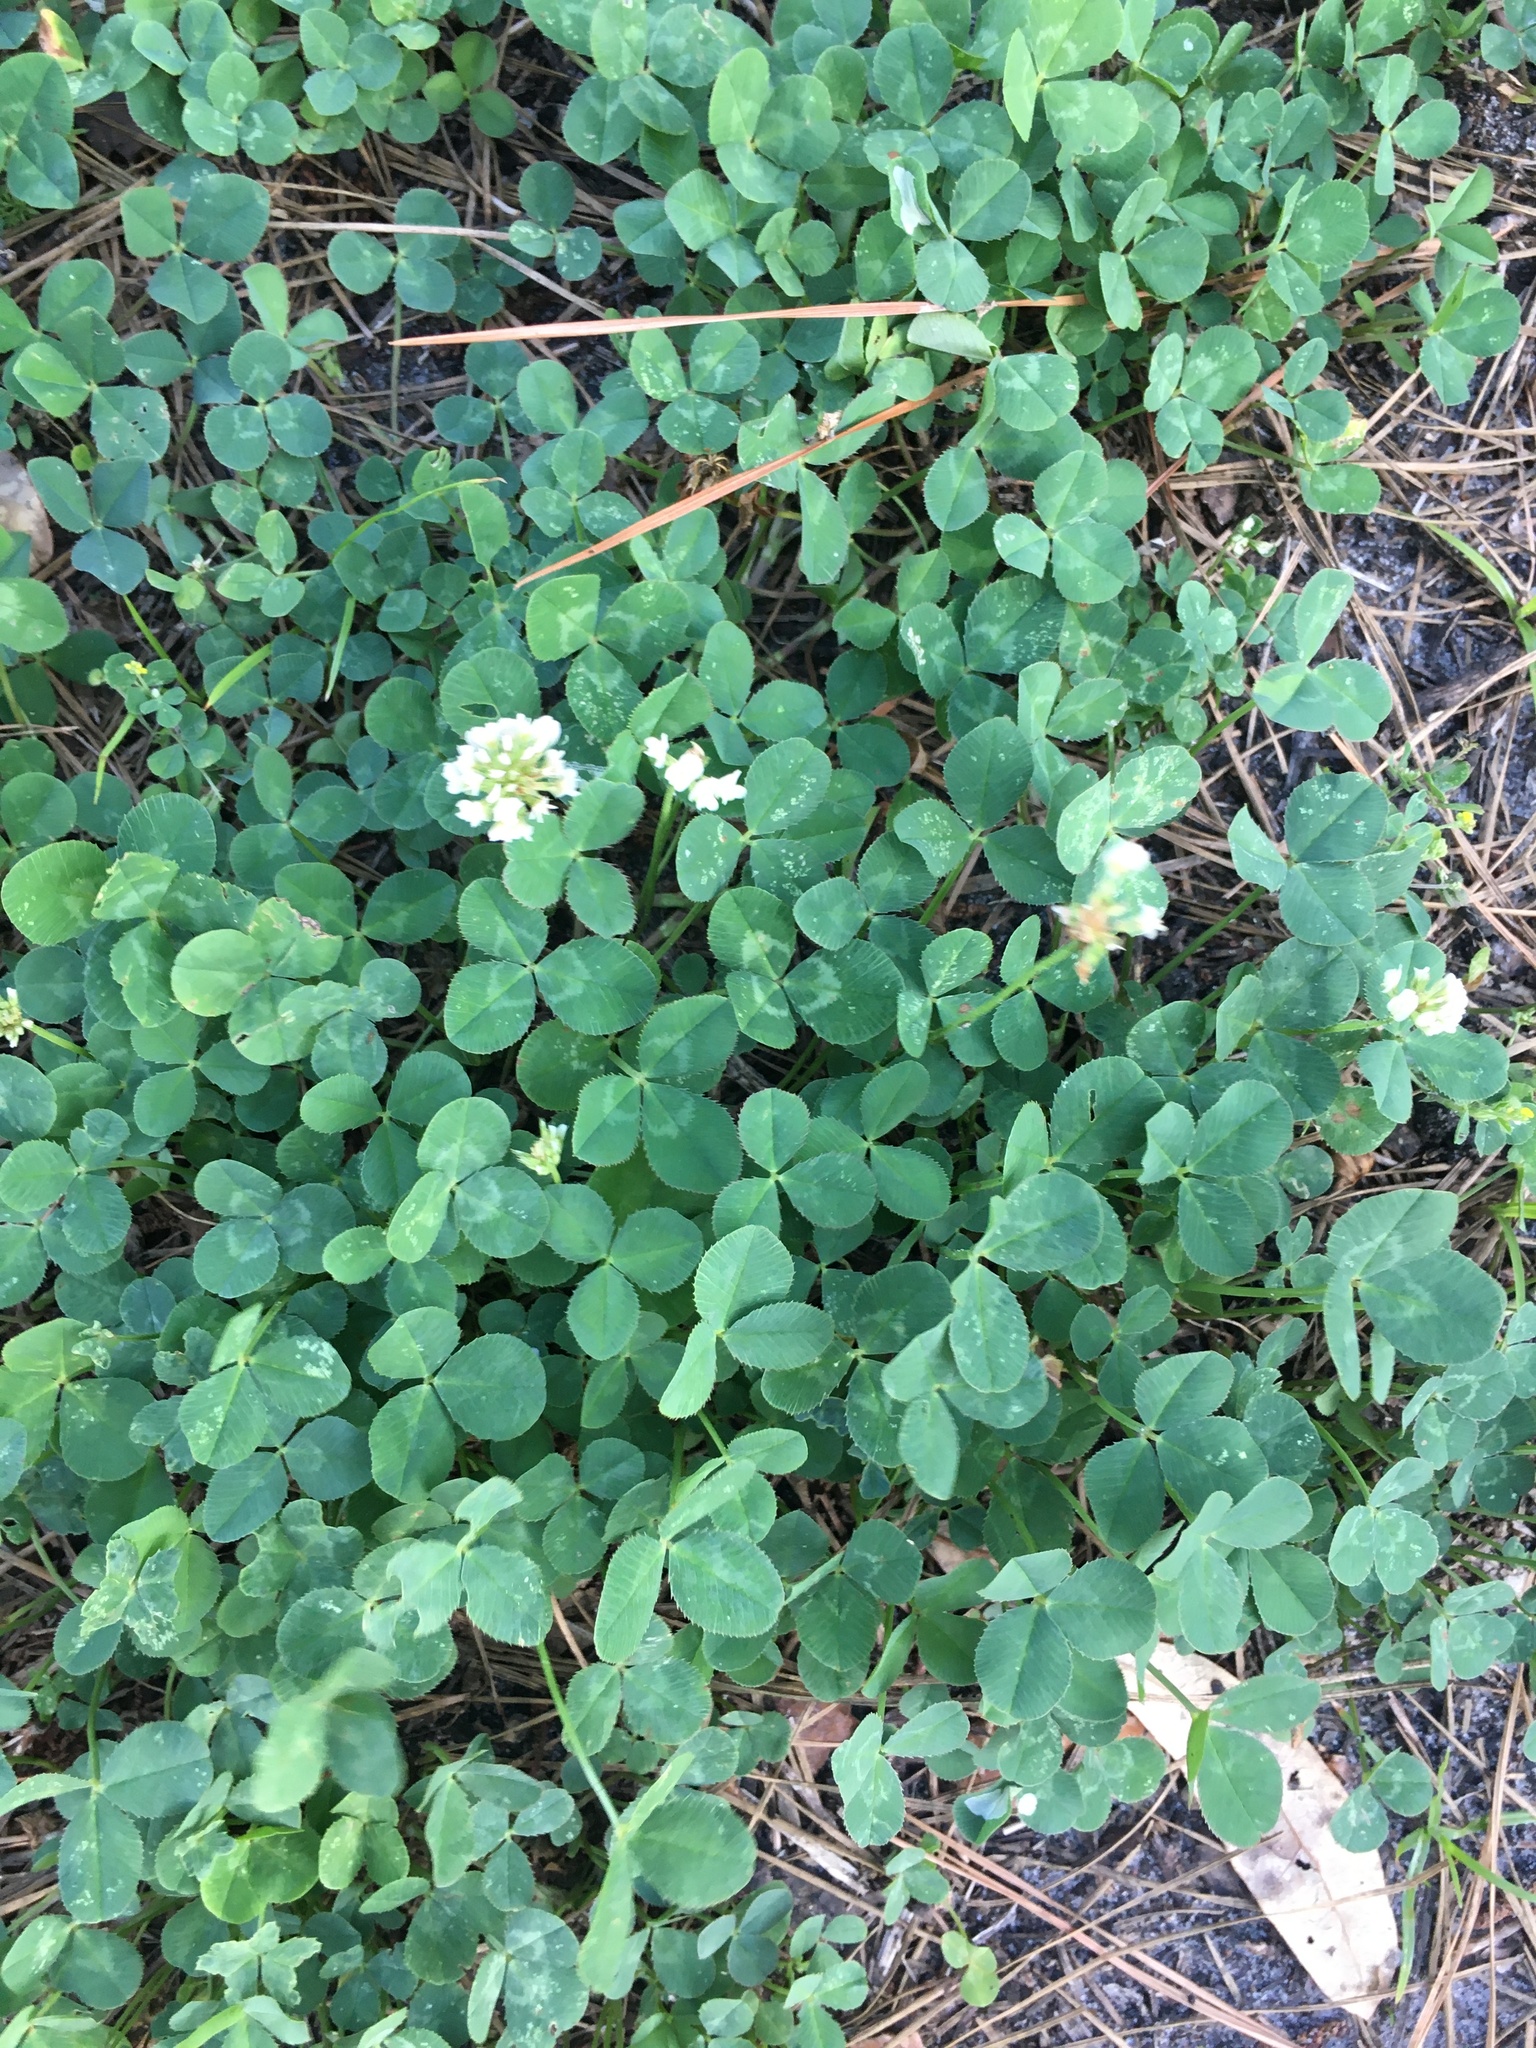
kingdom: Plantae
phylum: Tracheophyta
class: Magnoliopsida
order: Fabales
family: Fabaceae
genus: Trifolium
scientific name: Trifolium repens
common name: White clover
